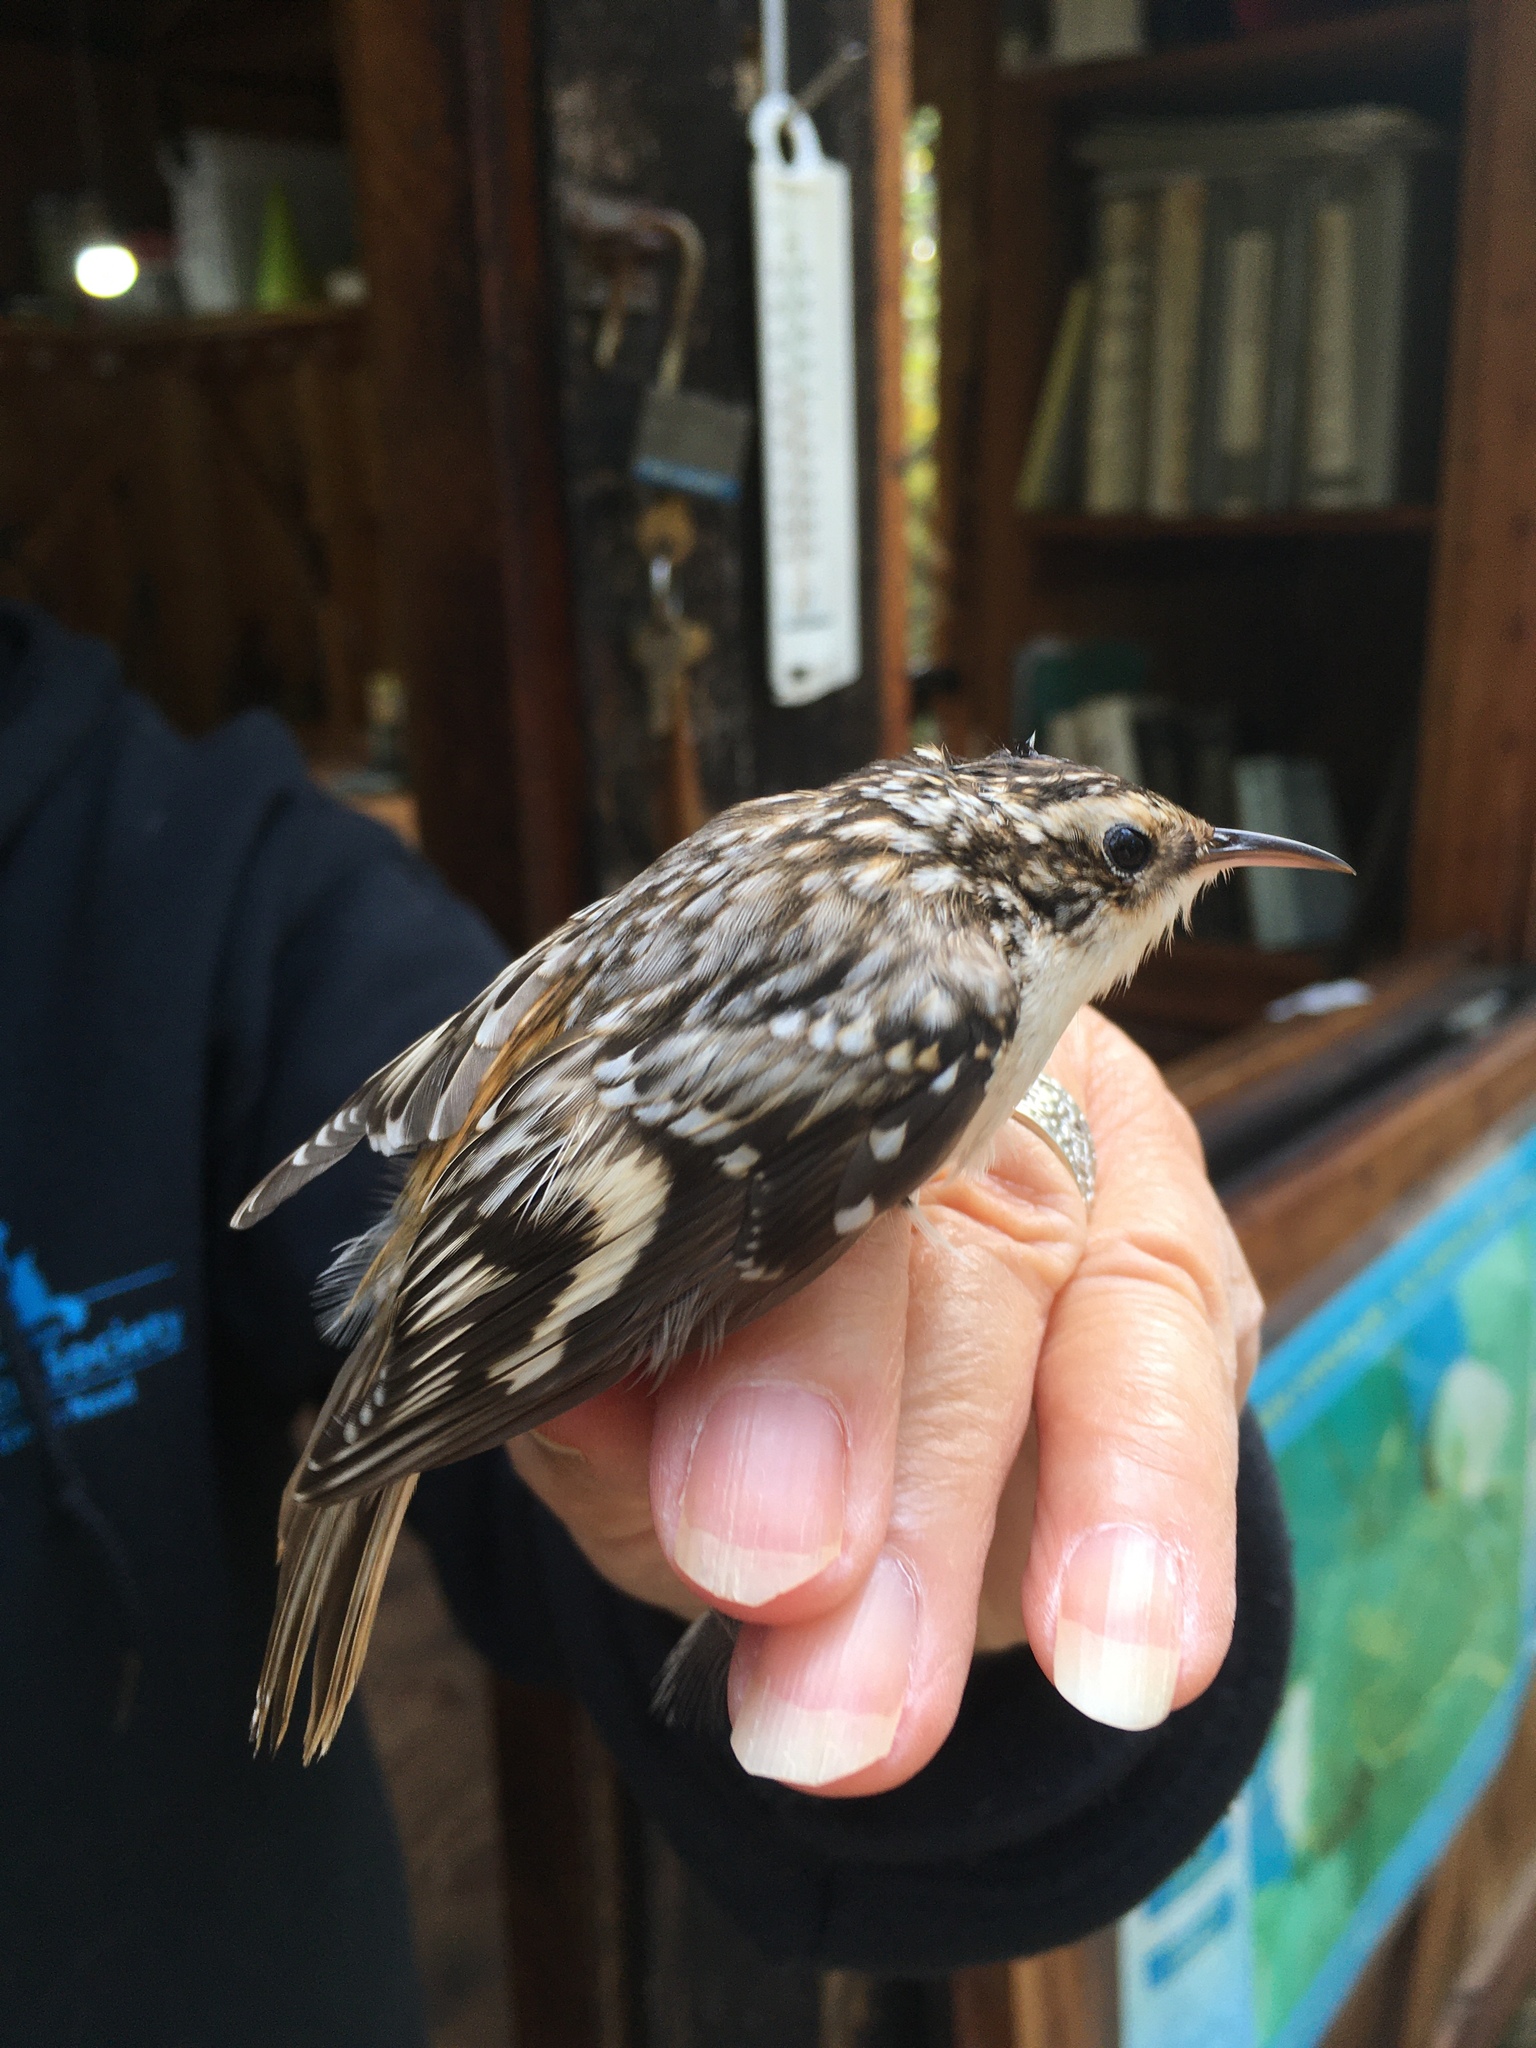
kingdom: Animalia
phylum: Chordata
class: Aves
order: Passeriformes
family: Certhiidae
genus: Certhia
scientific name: Certhia americana
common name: Brown creeper
